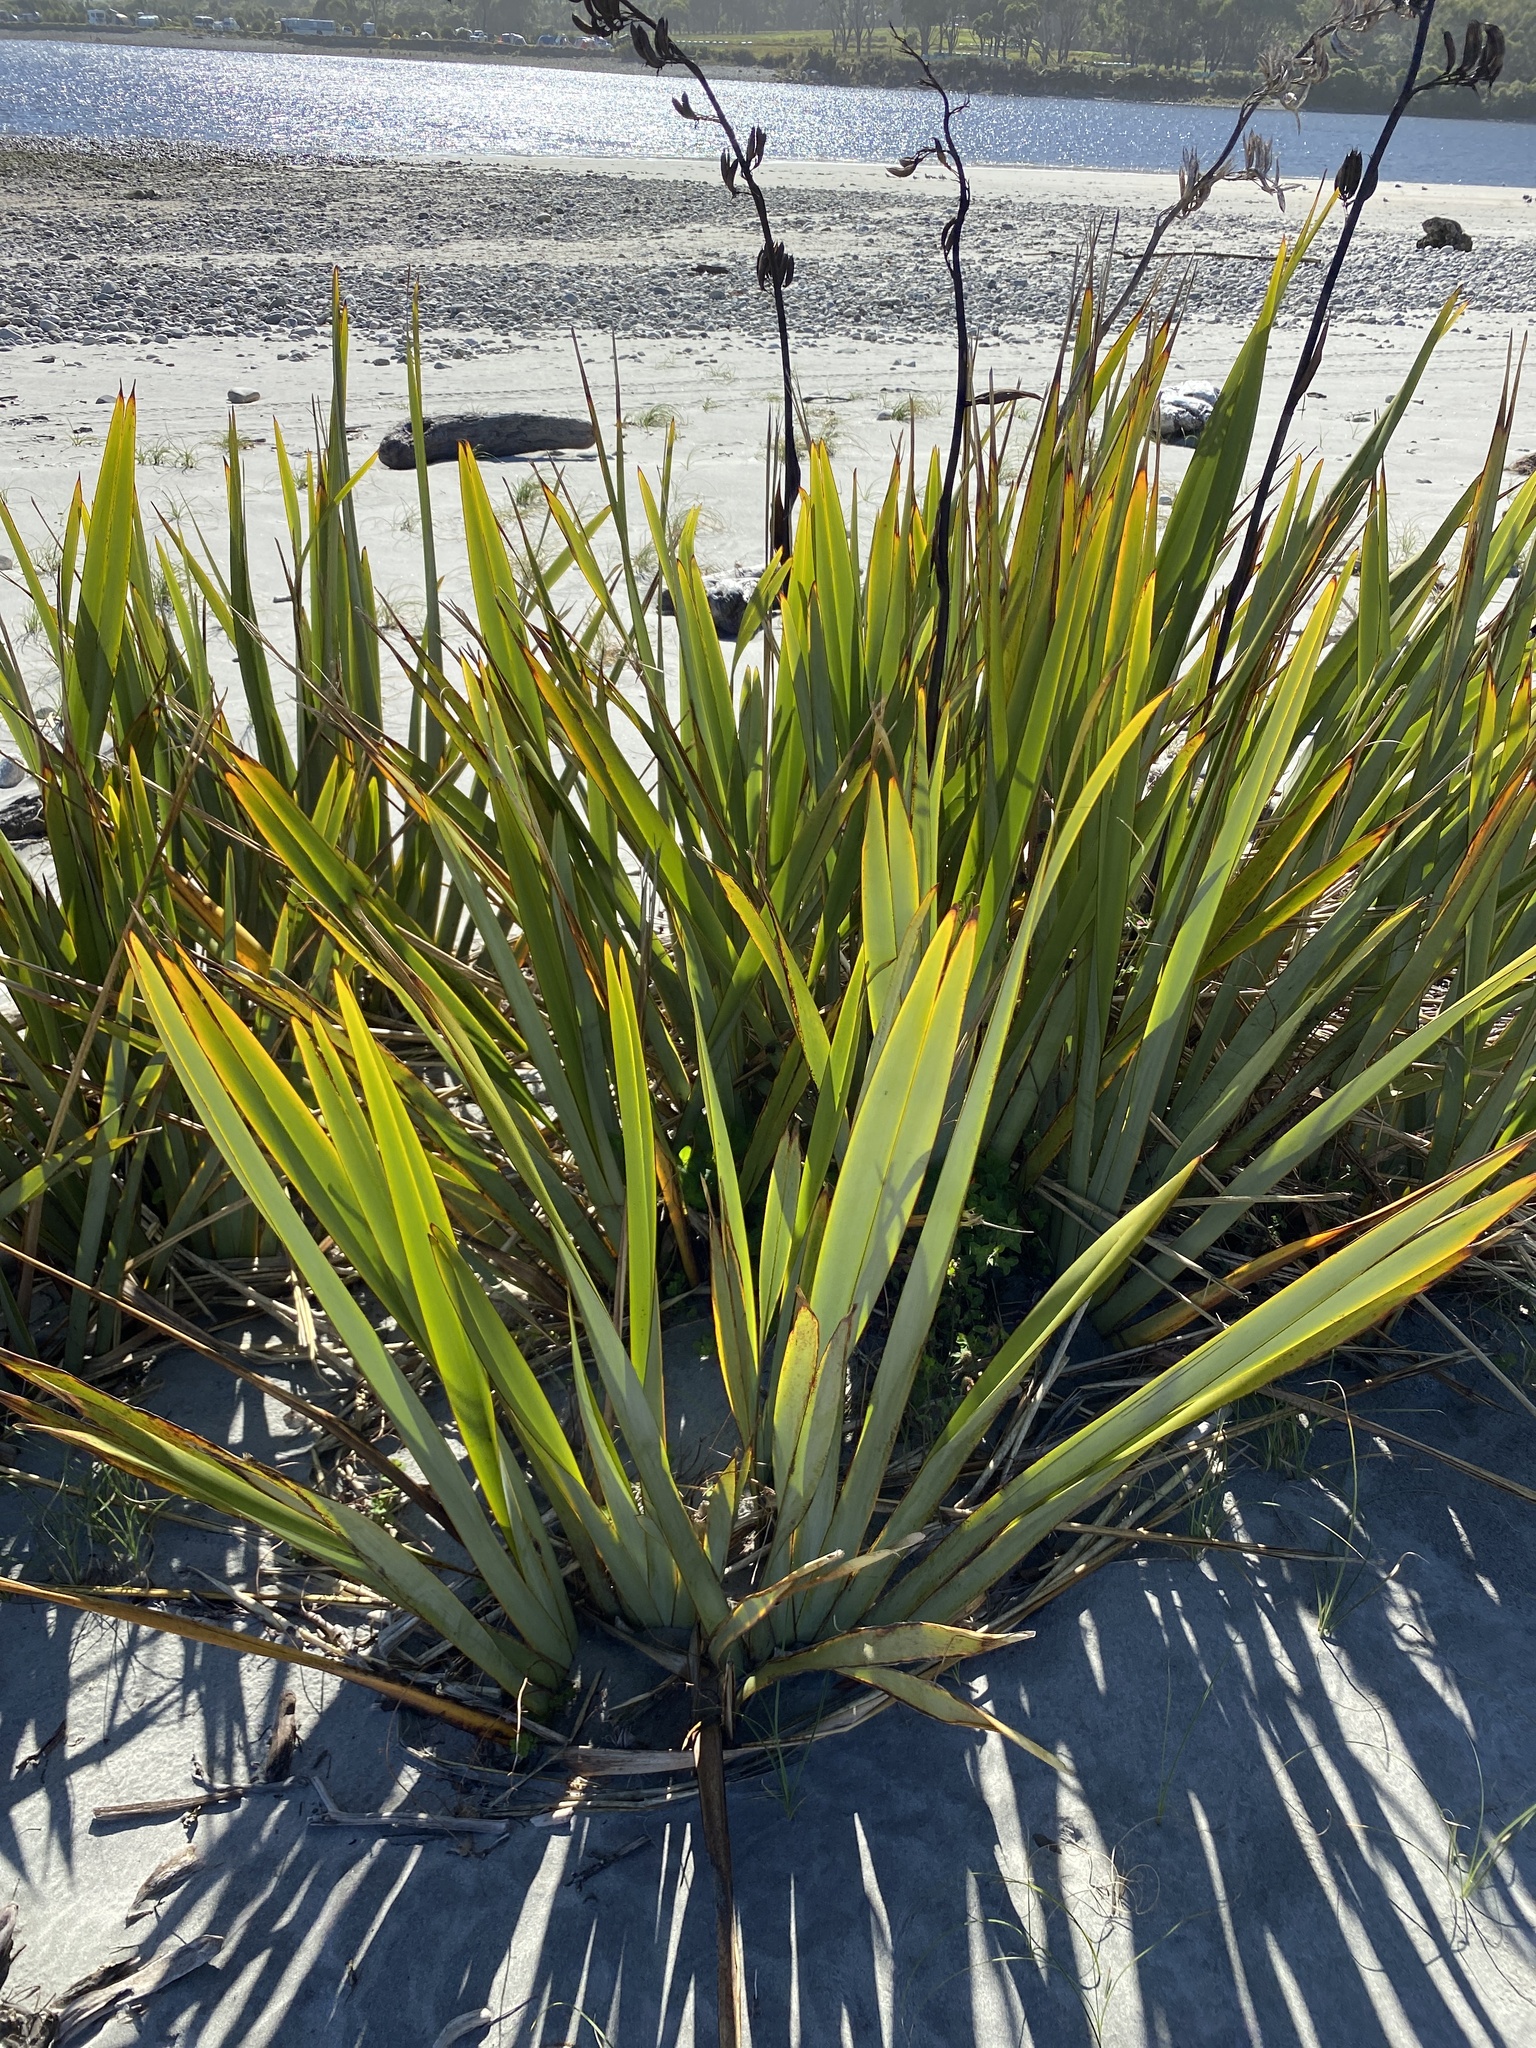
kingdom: Plantae
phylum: Tracheophyta
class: Liliopsida
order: Asparagales
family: Asphodelaceae
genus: Phormium
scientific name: Phormium tenax
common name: New zealand flax
